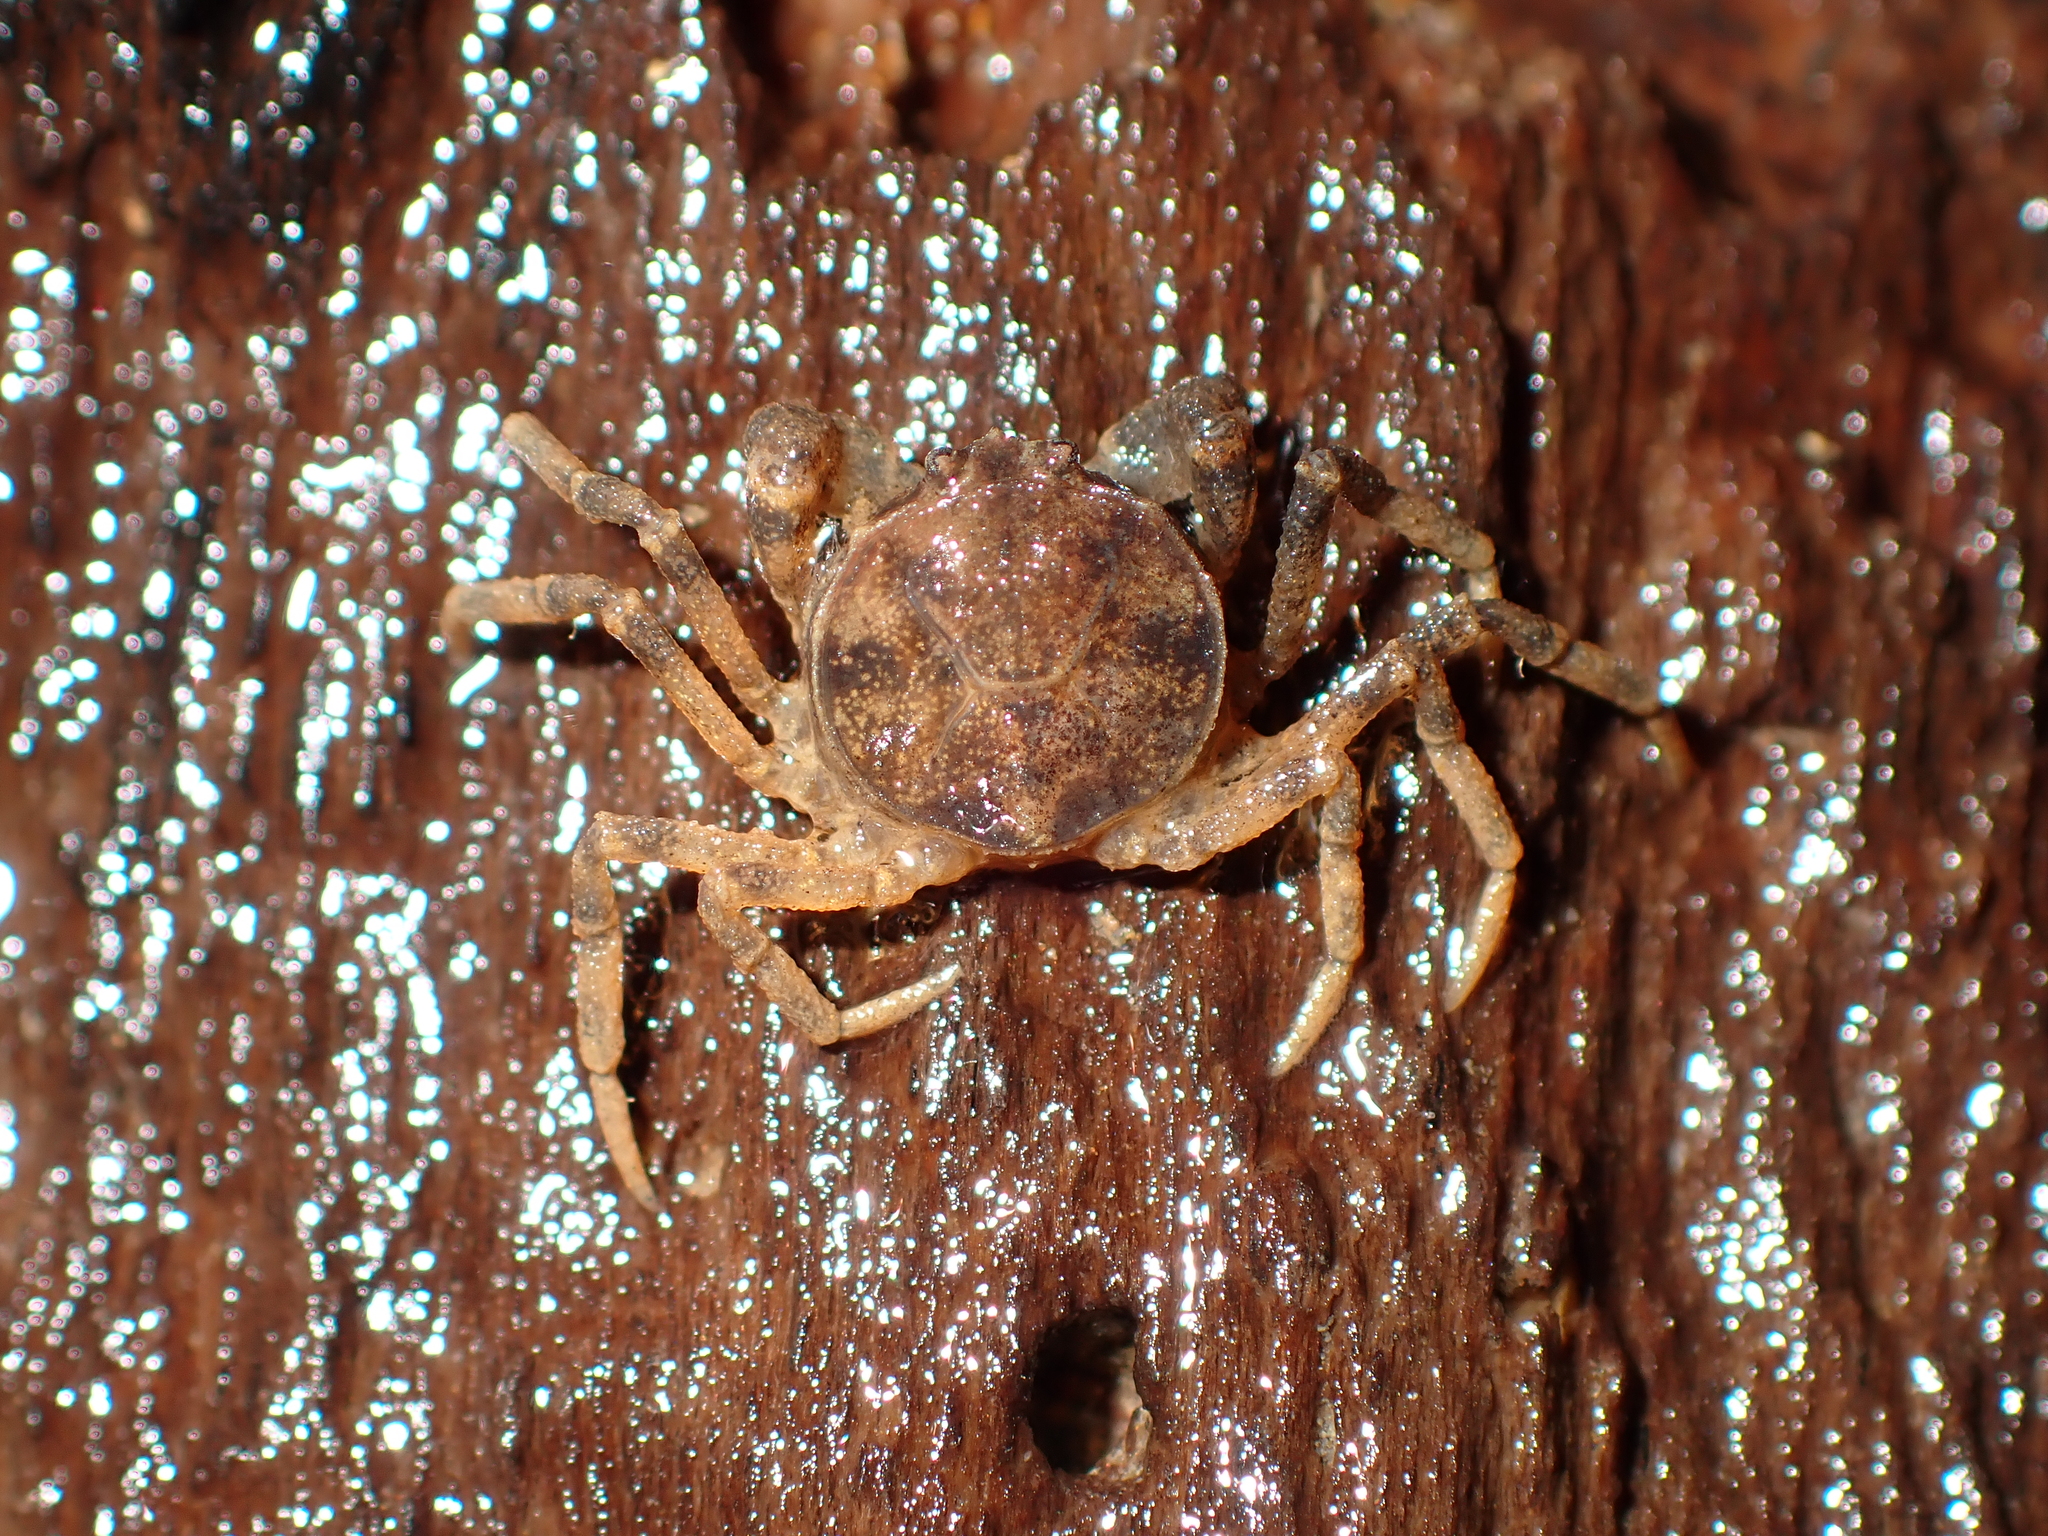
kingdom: Animalia
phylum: Arthropoda
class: Malacostraca
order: Decapoda
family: Hymenosomatidae
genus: Amarinus
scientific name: Amarinus lacustris
